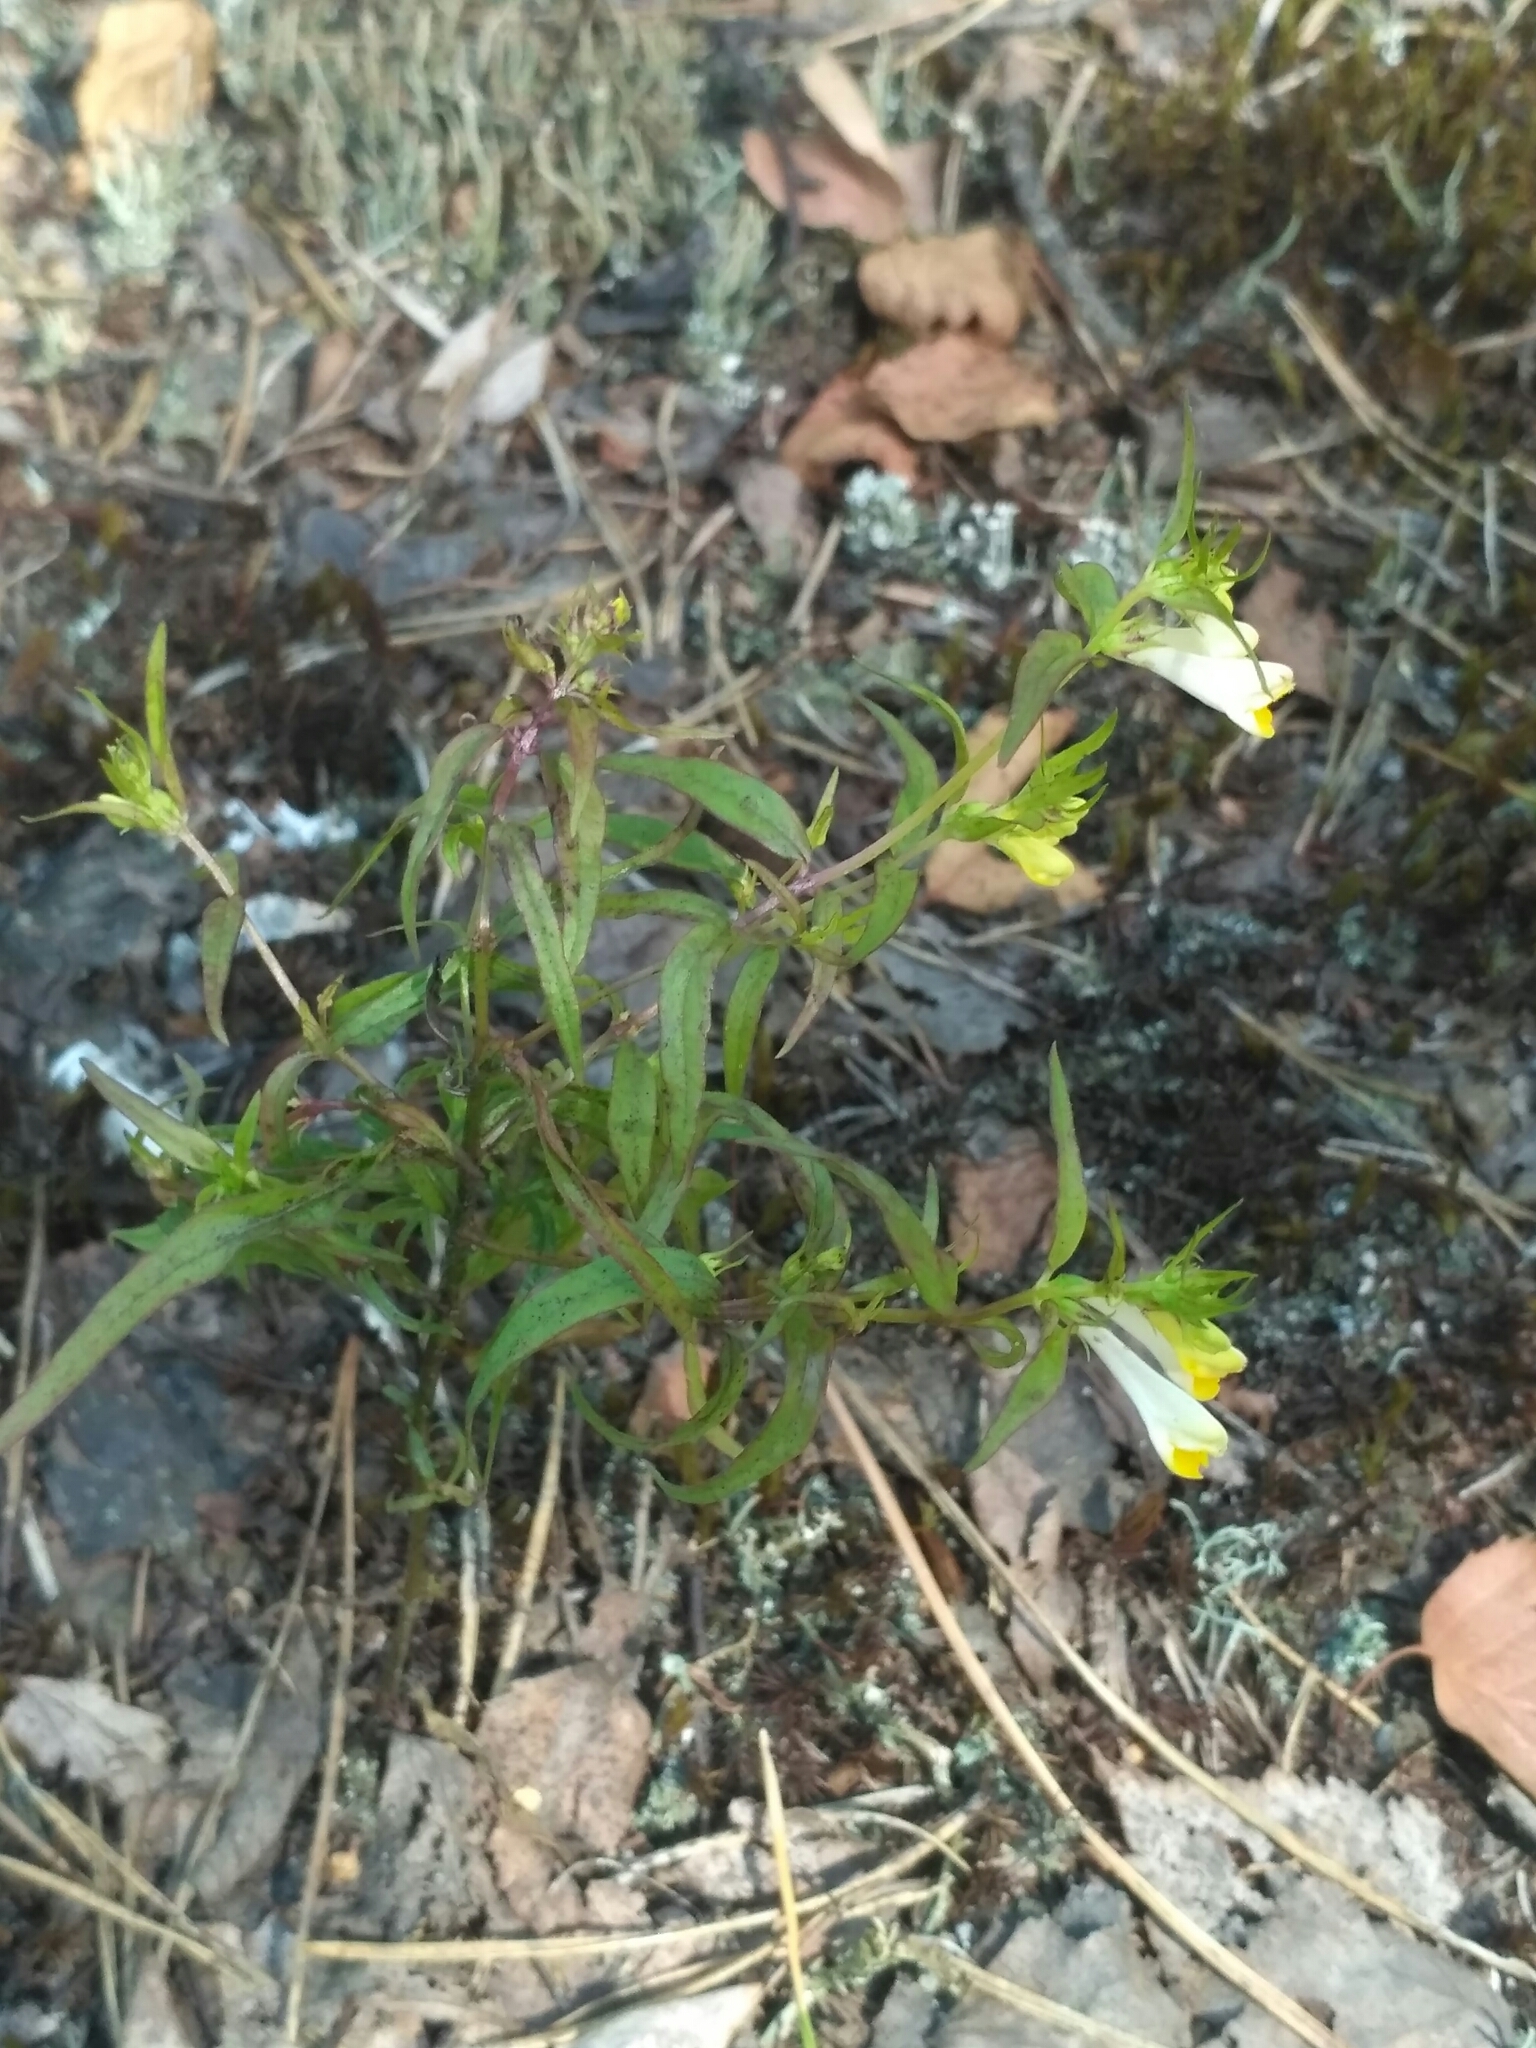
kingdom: Plantae
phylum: Tracheophyta
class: Magnoliopsida
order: Lamiales
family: Orobanchaceae
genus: Melampyrum
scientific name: Melampyrum pratense
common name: Common cow-wheat
